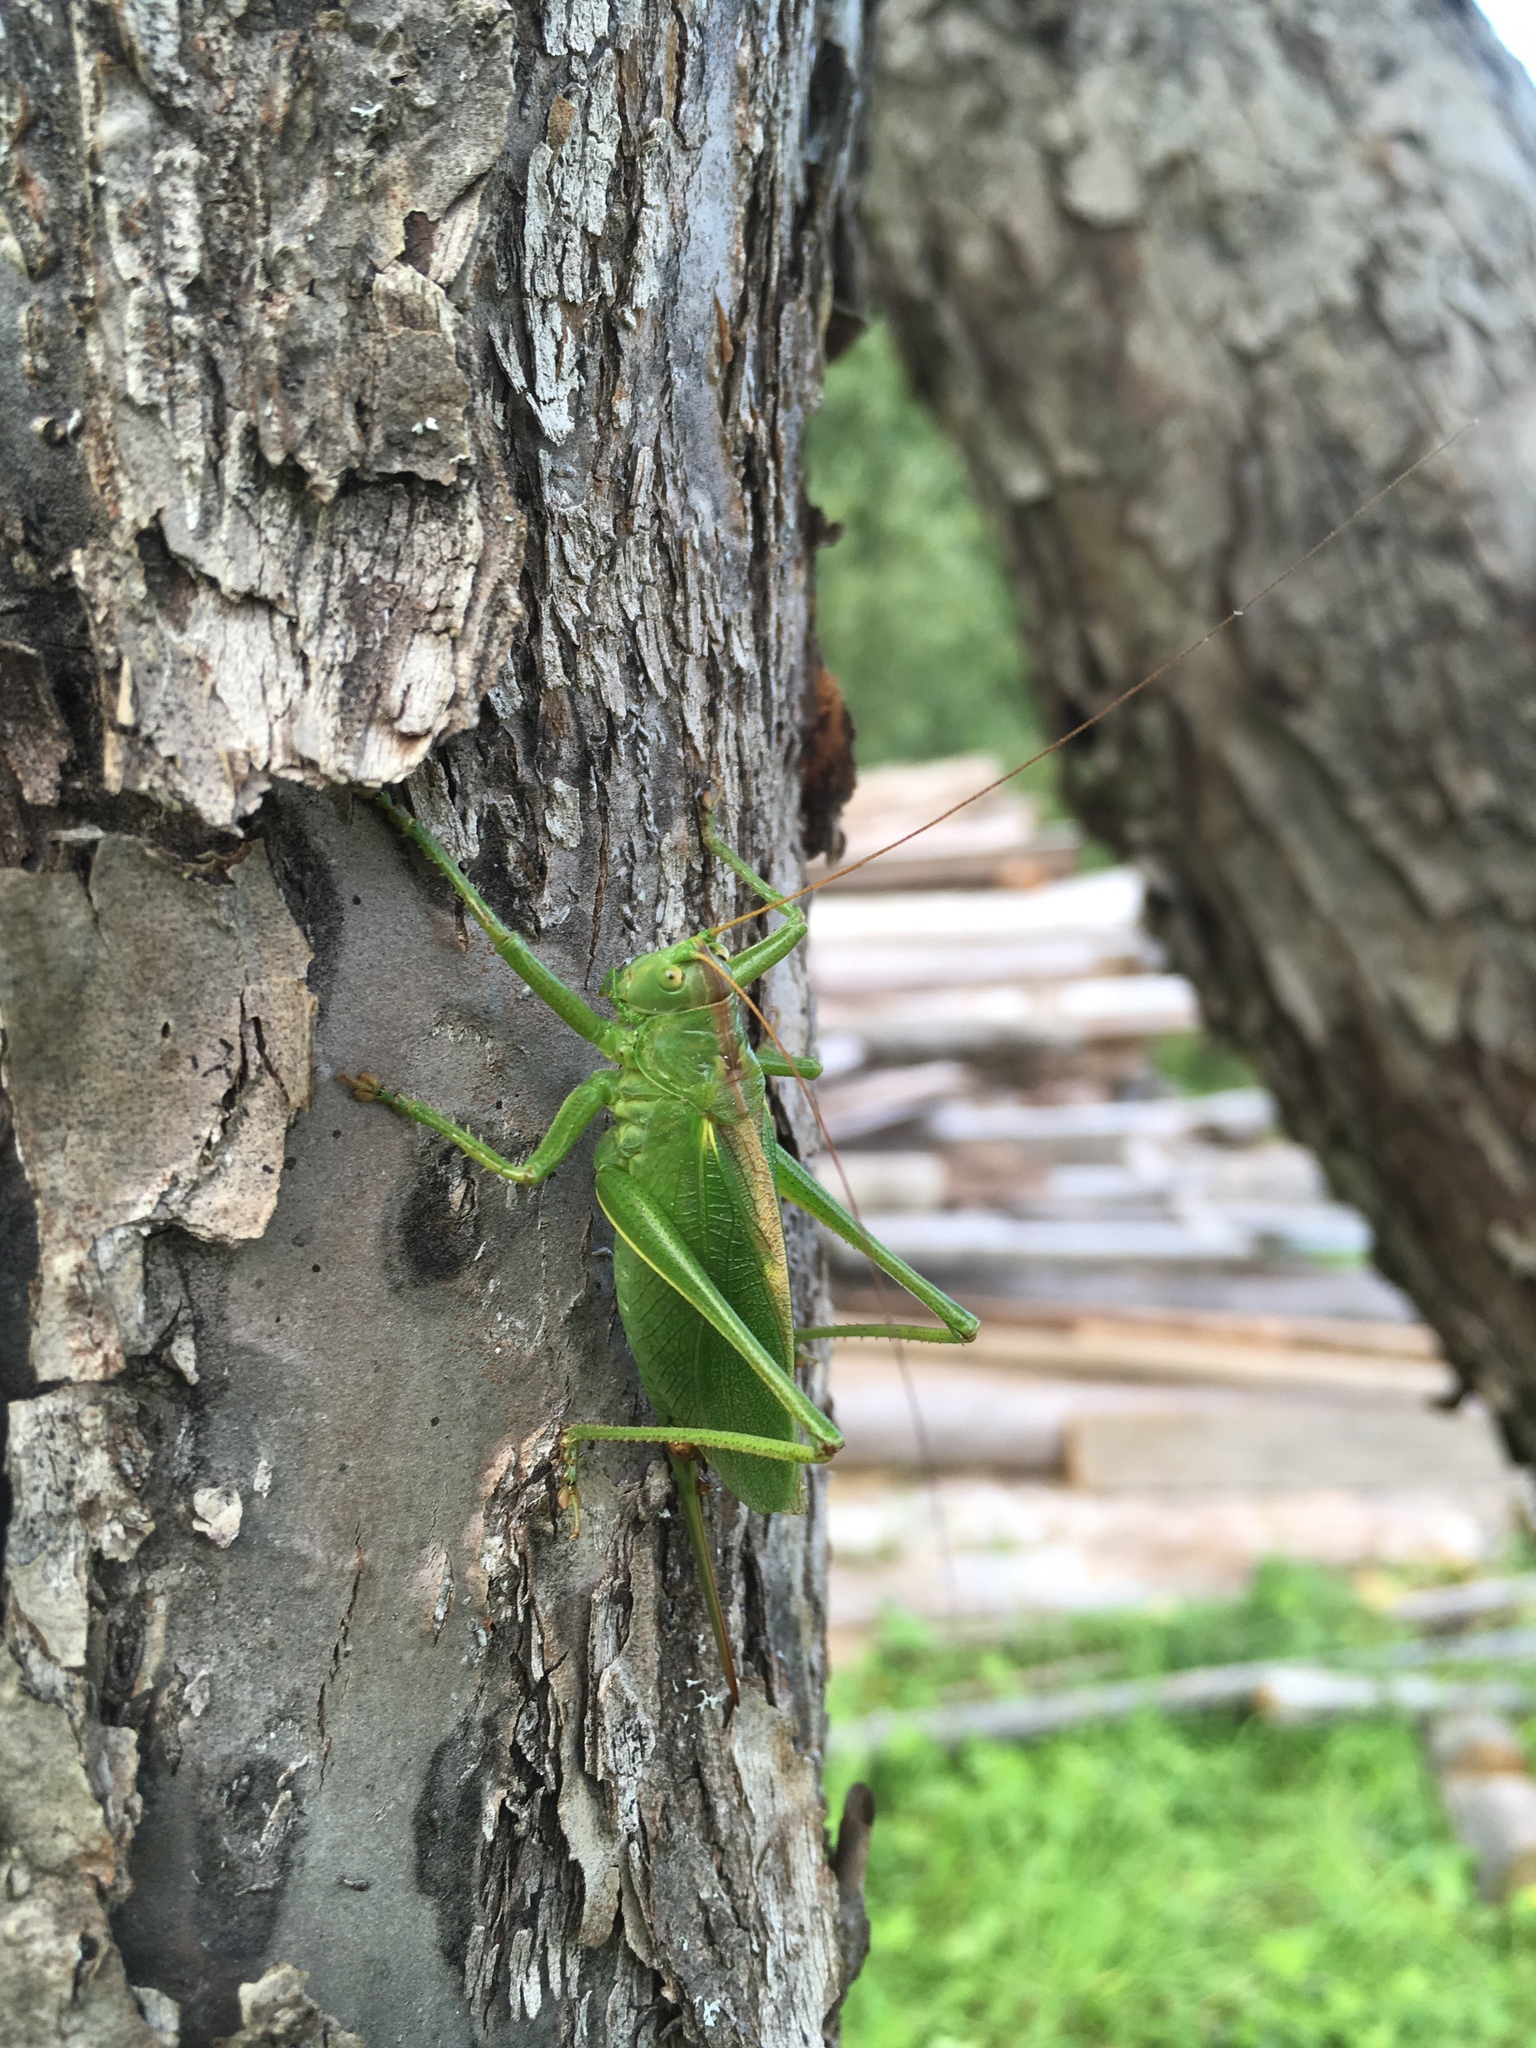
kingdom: Animalia
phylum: Arthropoda
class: Insecta
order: Orthoptera
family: Tettigoniidae
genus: Tettigonia
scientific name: Tettigonia cantans
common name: Upland green bush-cricket
